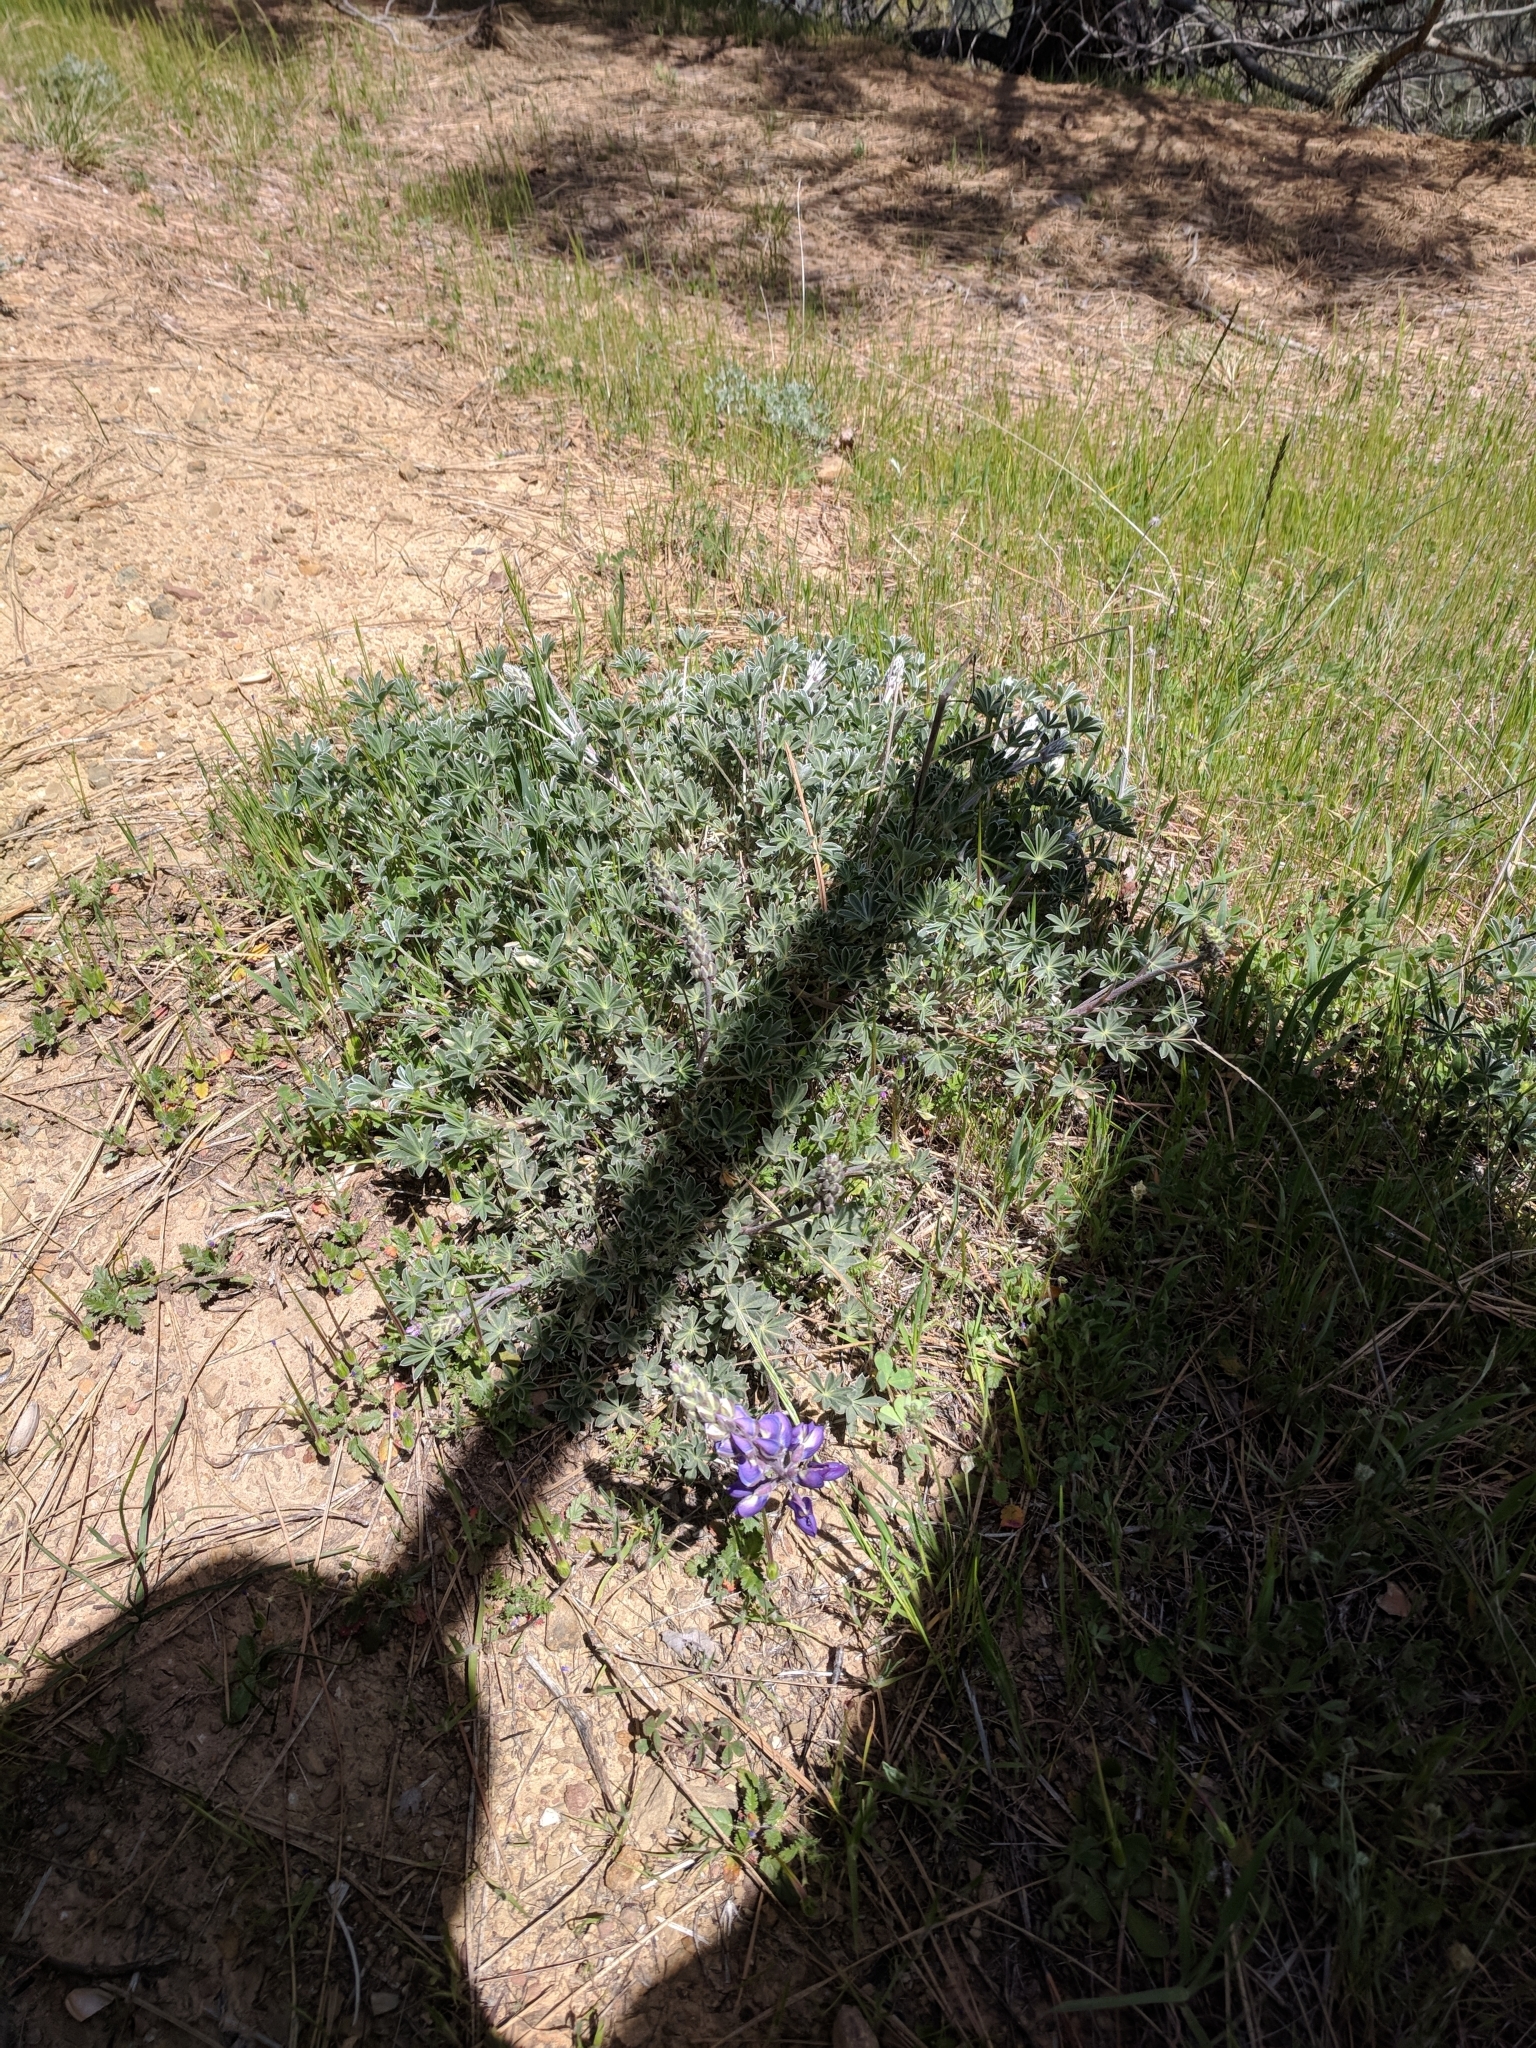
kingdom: Plantae
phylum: Tracheophyta
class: Magnoliopsida
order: Fabales
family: Fabaceae
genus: Lupinus
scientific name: Lupinus albifrons
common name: Foothill lupine
